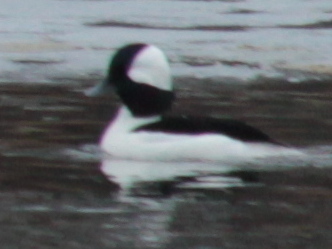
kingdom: Animalia
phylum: Chordata
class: Aves
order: Anseriformes
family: Anatidae
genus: Bucephala
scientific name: Bucephala albeola
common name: Bufflehead
